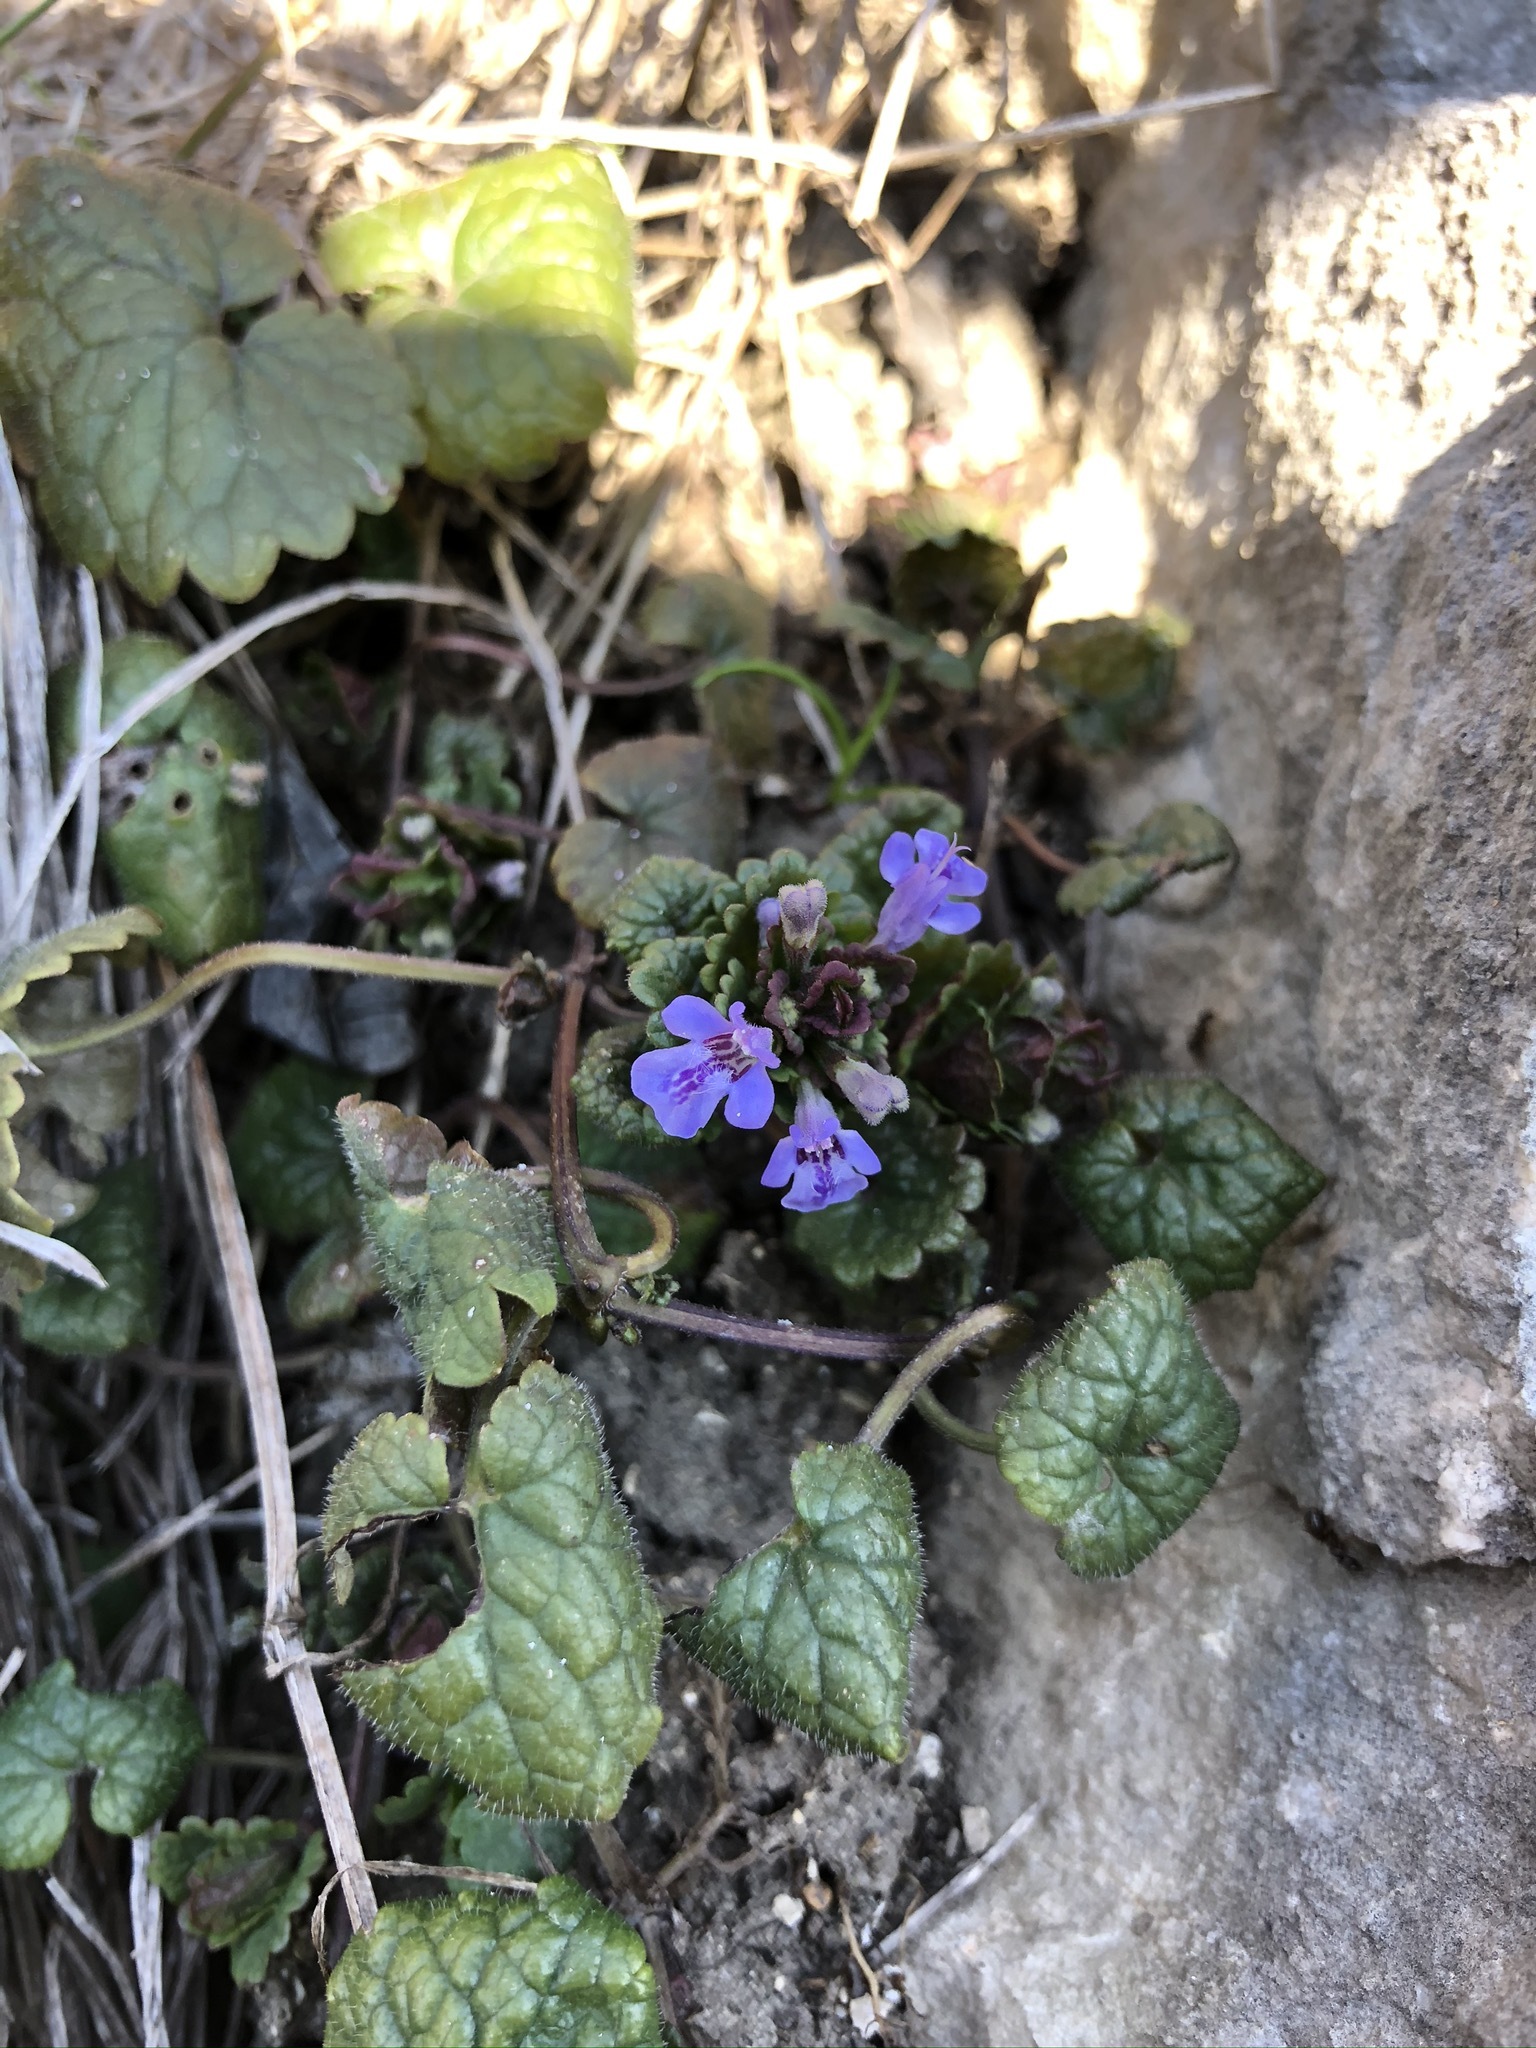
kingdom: Plantae
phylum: Tracheophyta
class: Magnoliopsida
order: Lamiales
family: Lamiaceae
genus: Glechoma
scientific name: Glechoma hederacea
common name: Ground ivy
